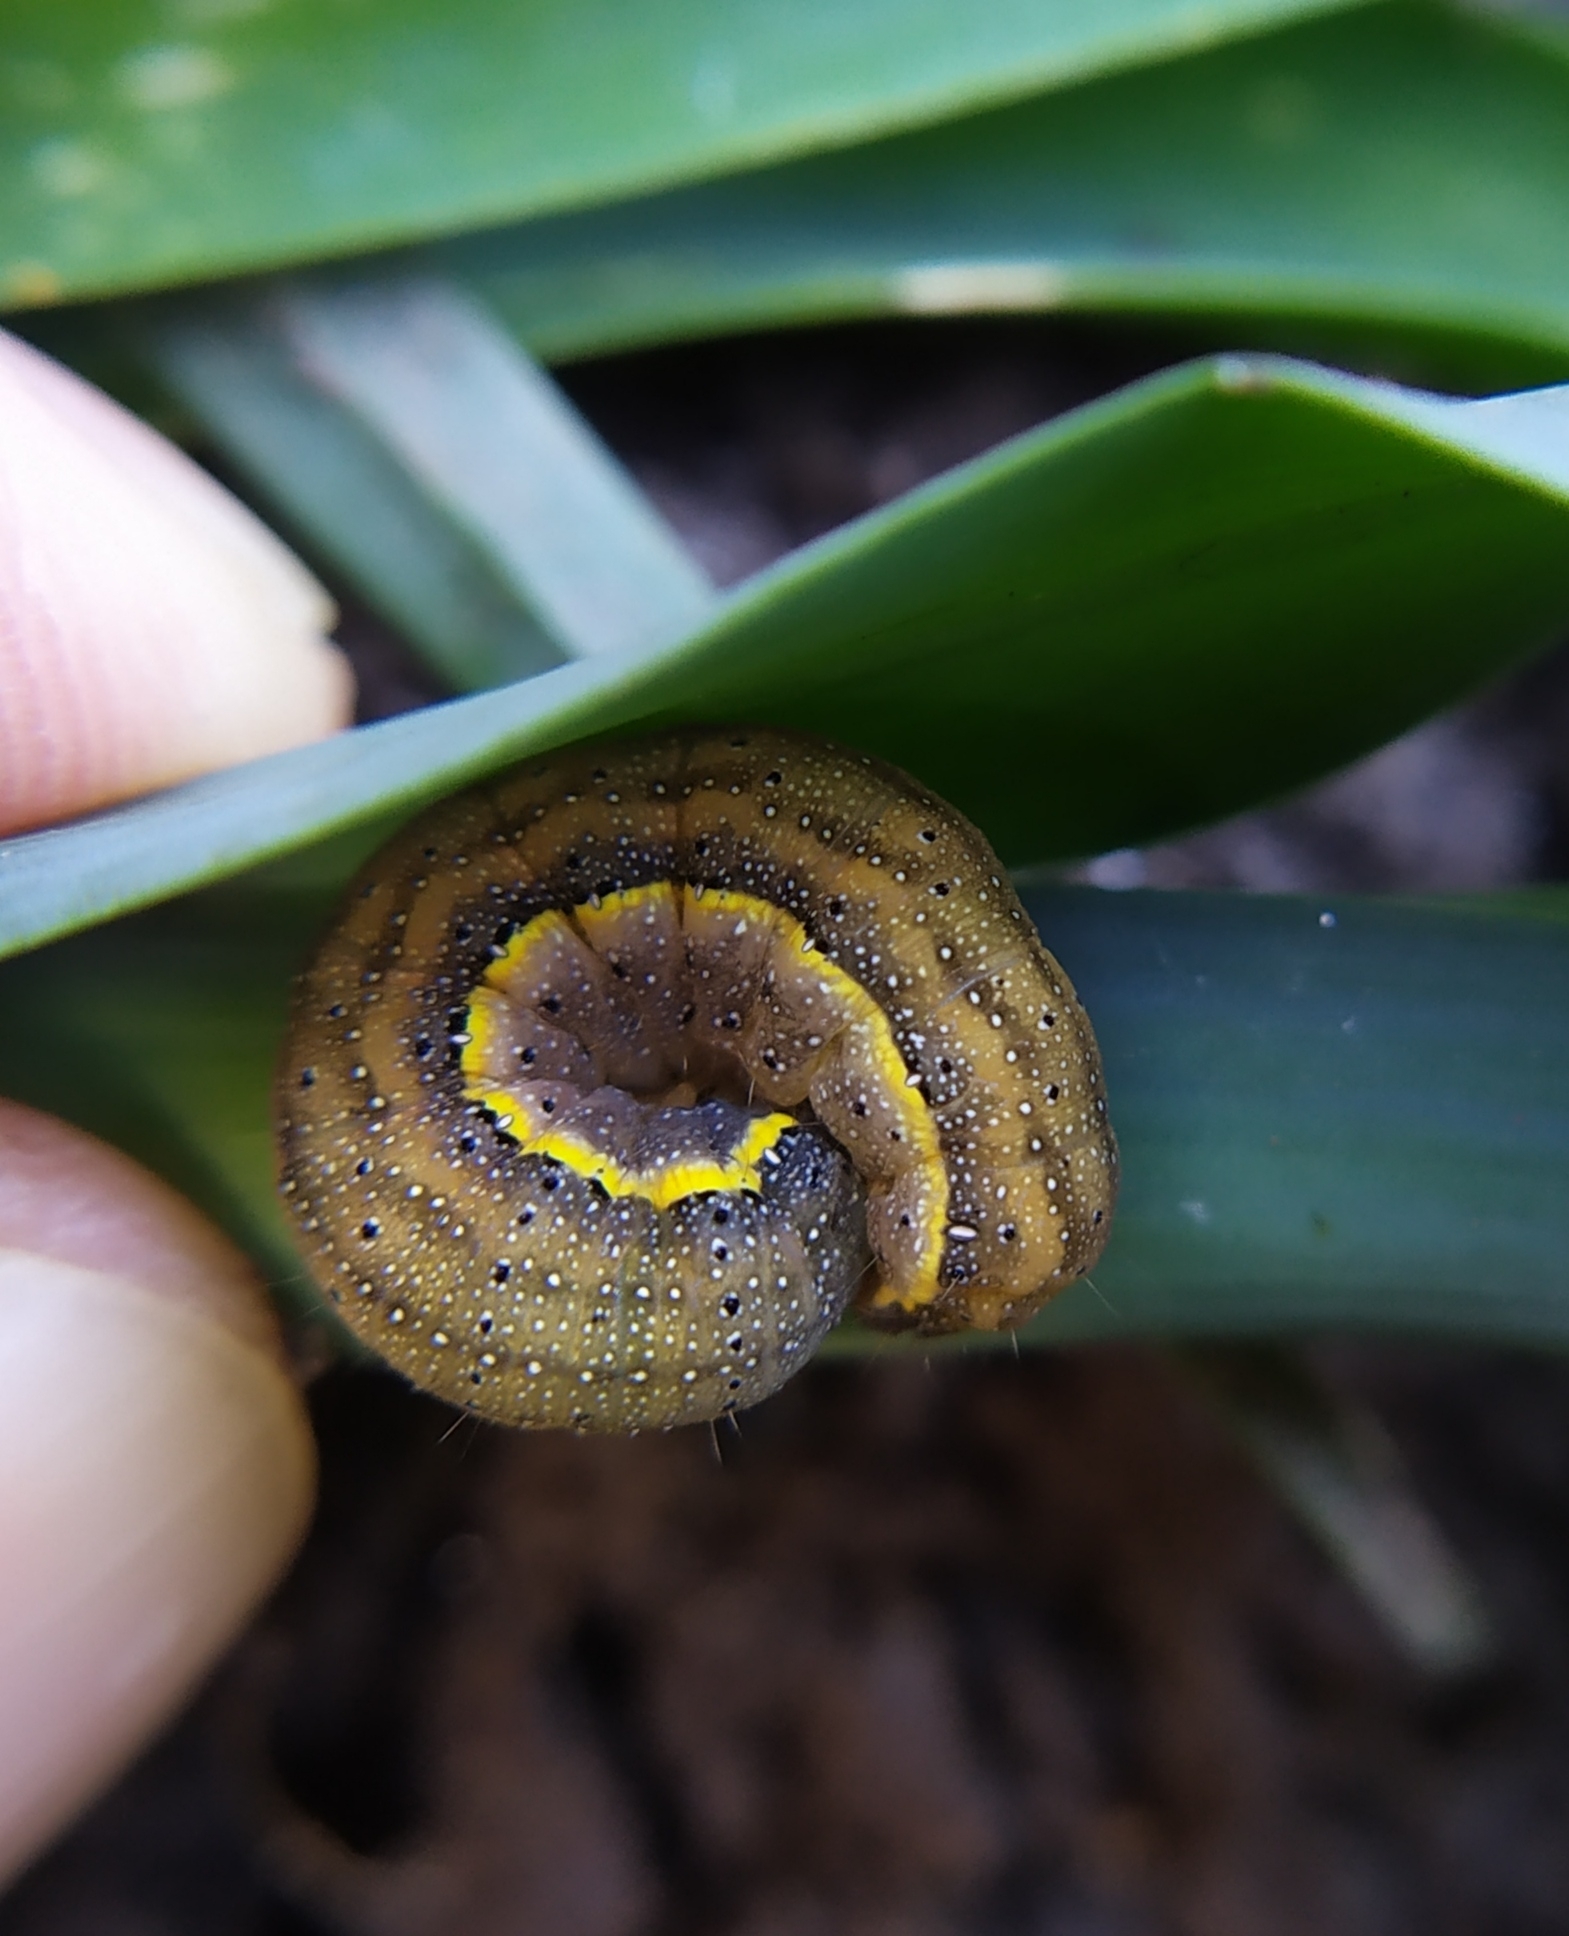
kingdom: Animalia
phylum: Arthropoda
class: Insecta
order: Lepidoptera
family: Noctuidae
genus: Lacanobia
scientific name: Lacanobia oleracea
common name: Bright-line brown-eye
